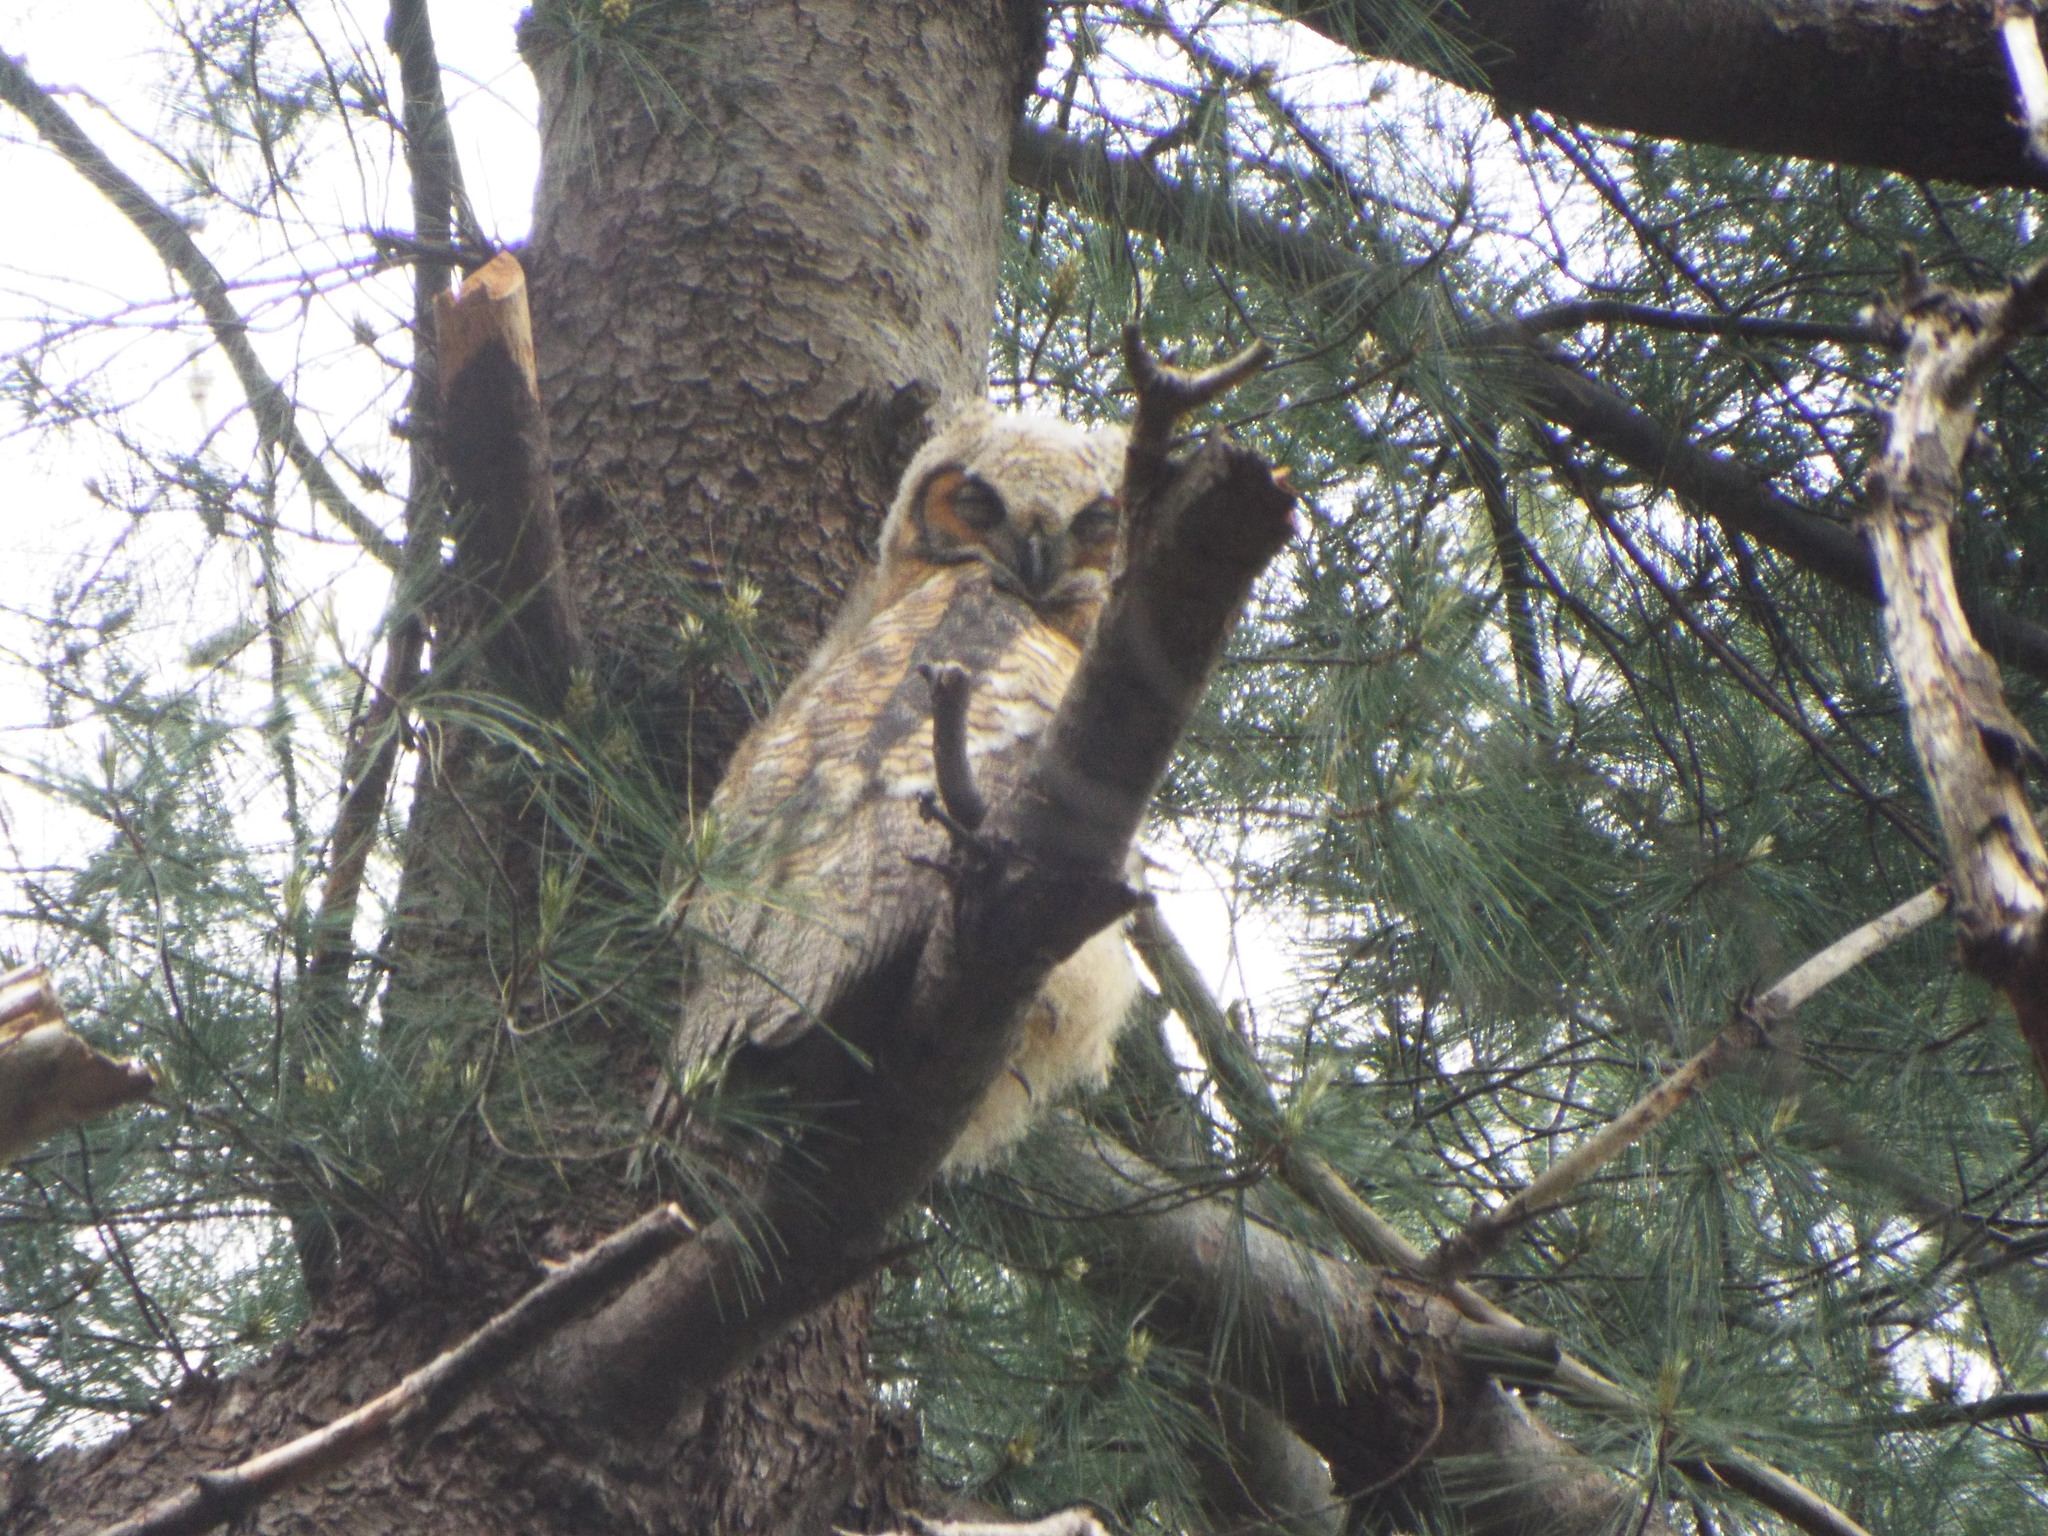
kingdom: Animalia
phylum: Chordata
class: Aves
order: Strigiformes
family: Strigidae
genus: Bubo
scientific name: Bubo virginianus
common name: Great horned owl
